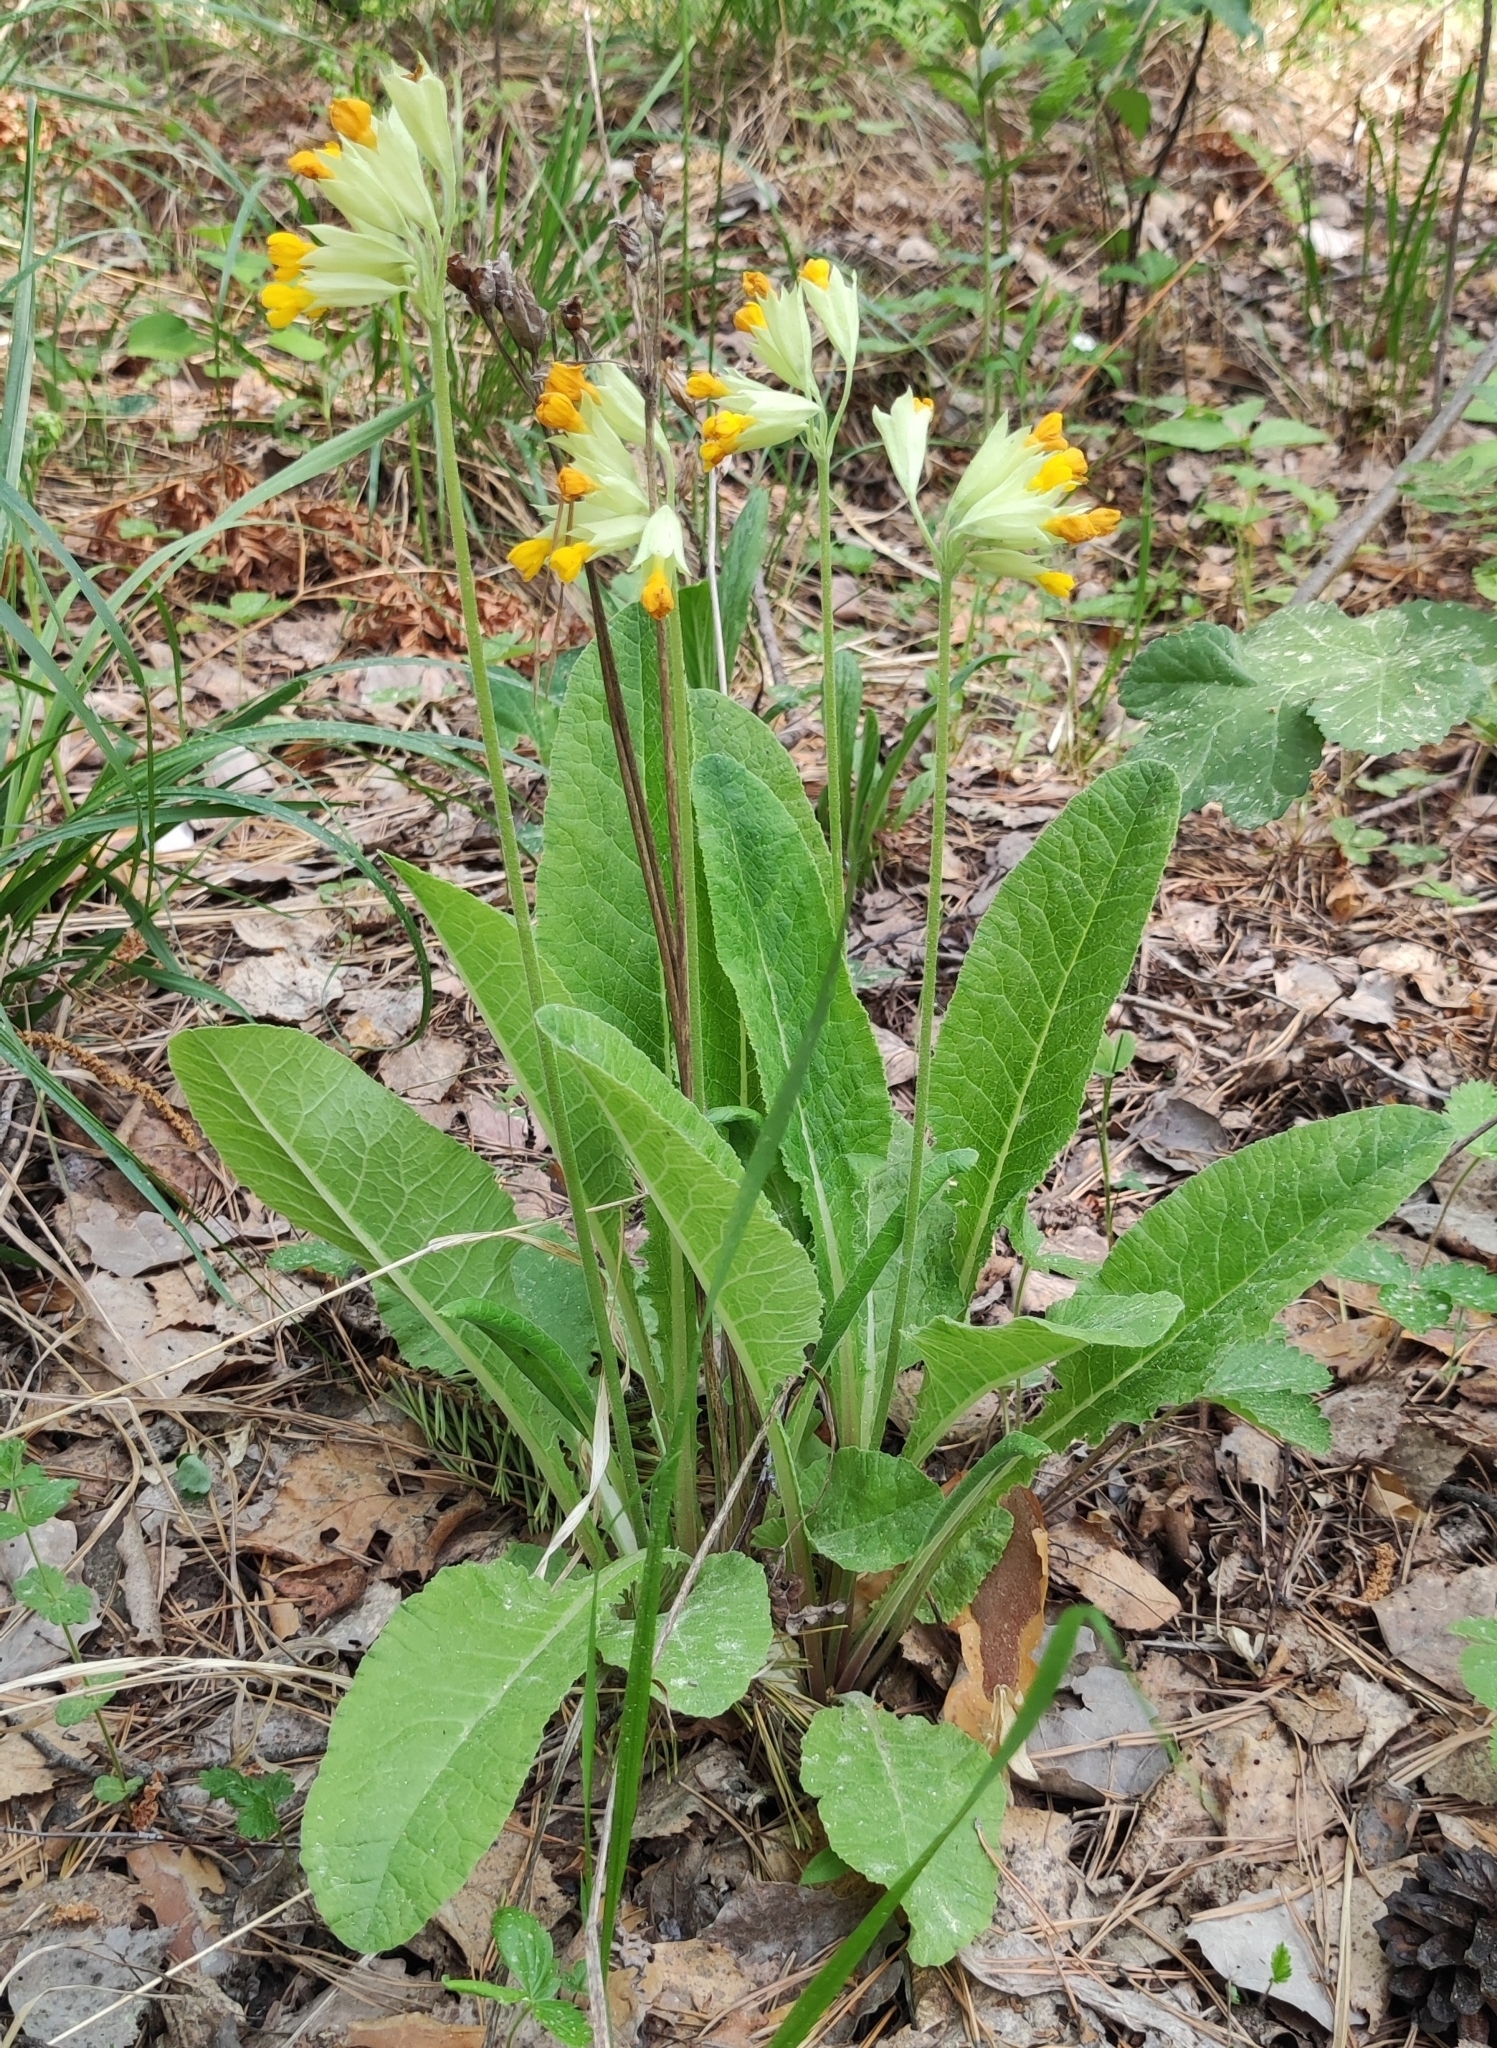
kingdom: Plantae
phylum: Tracheophyta
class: Magnoliopsida
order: Ericales
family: Primulaceae
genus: Primula
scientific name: Primula veris
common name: Cowslip
